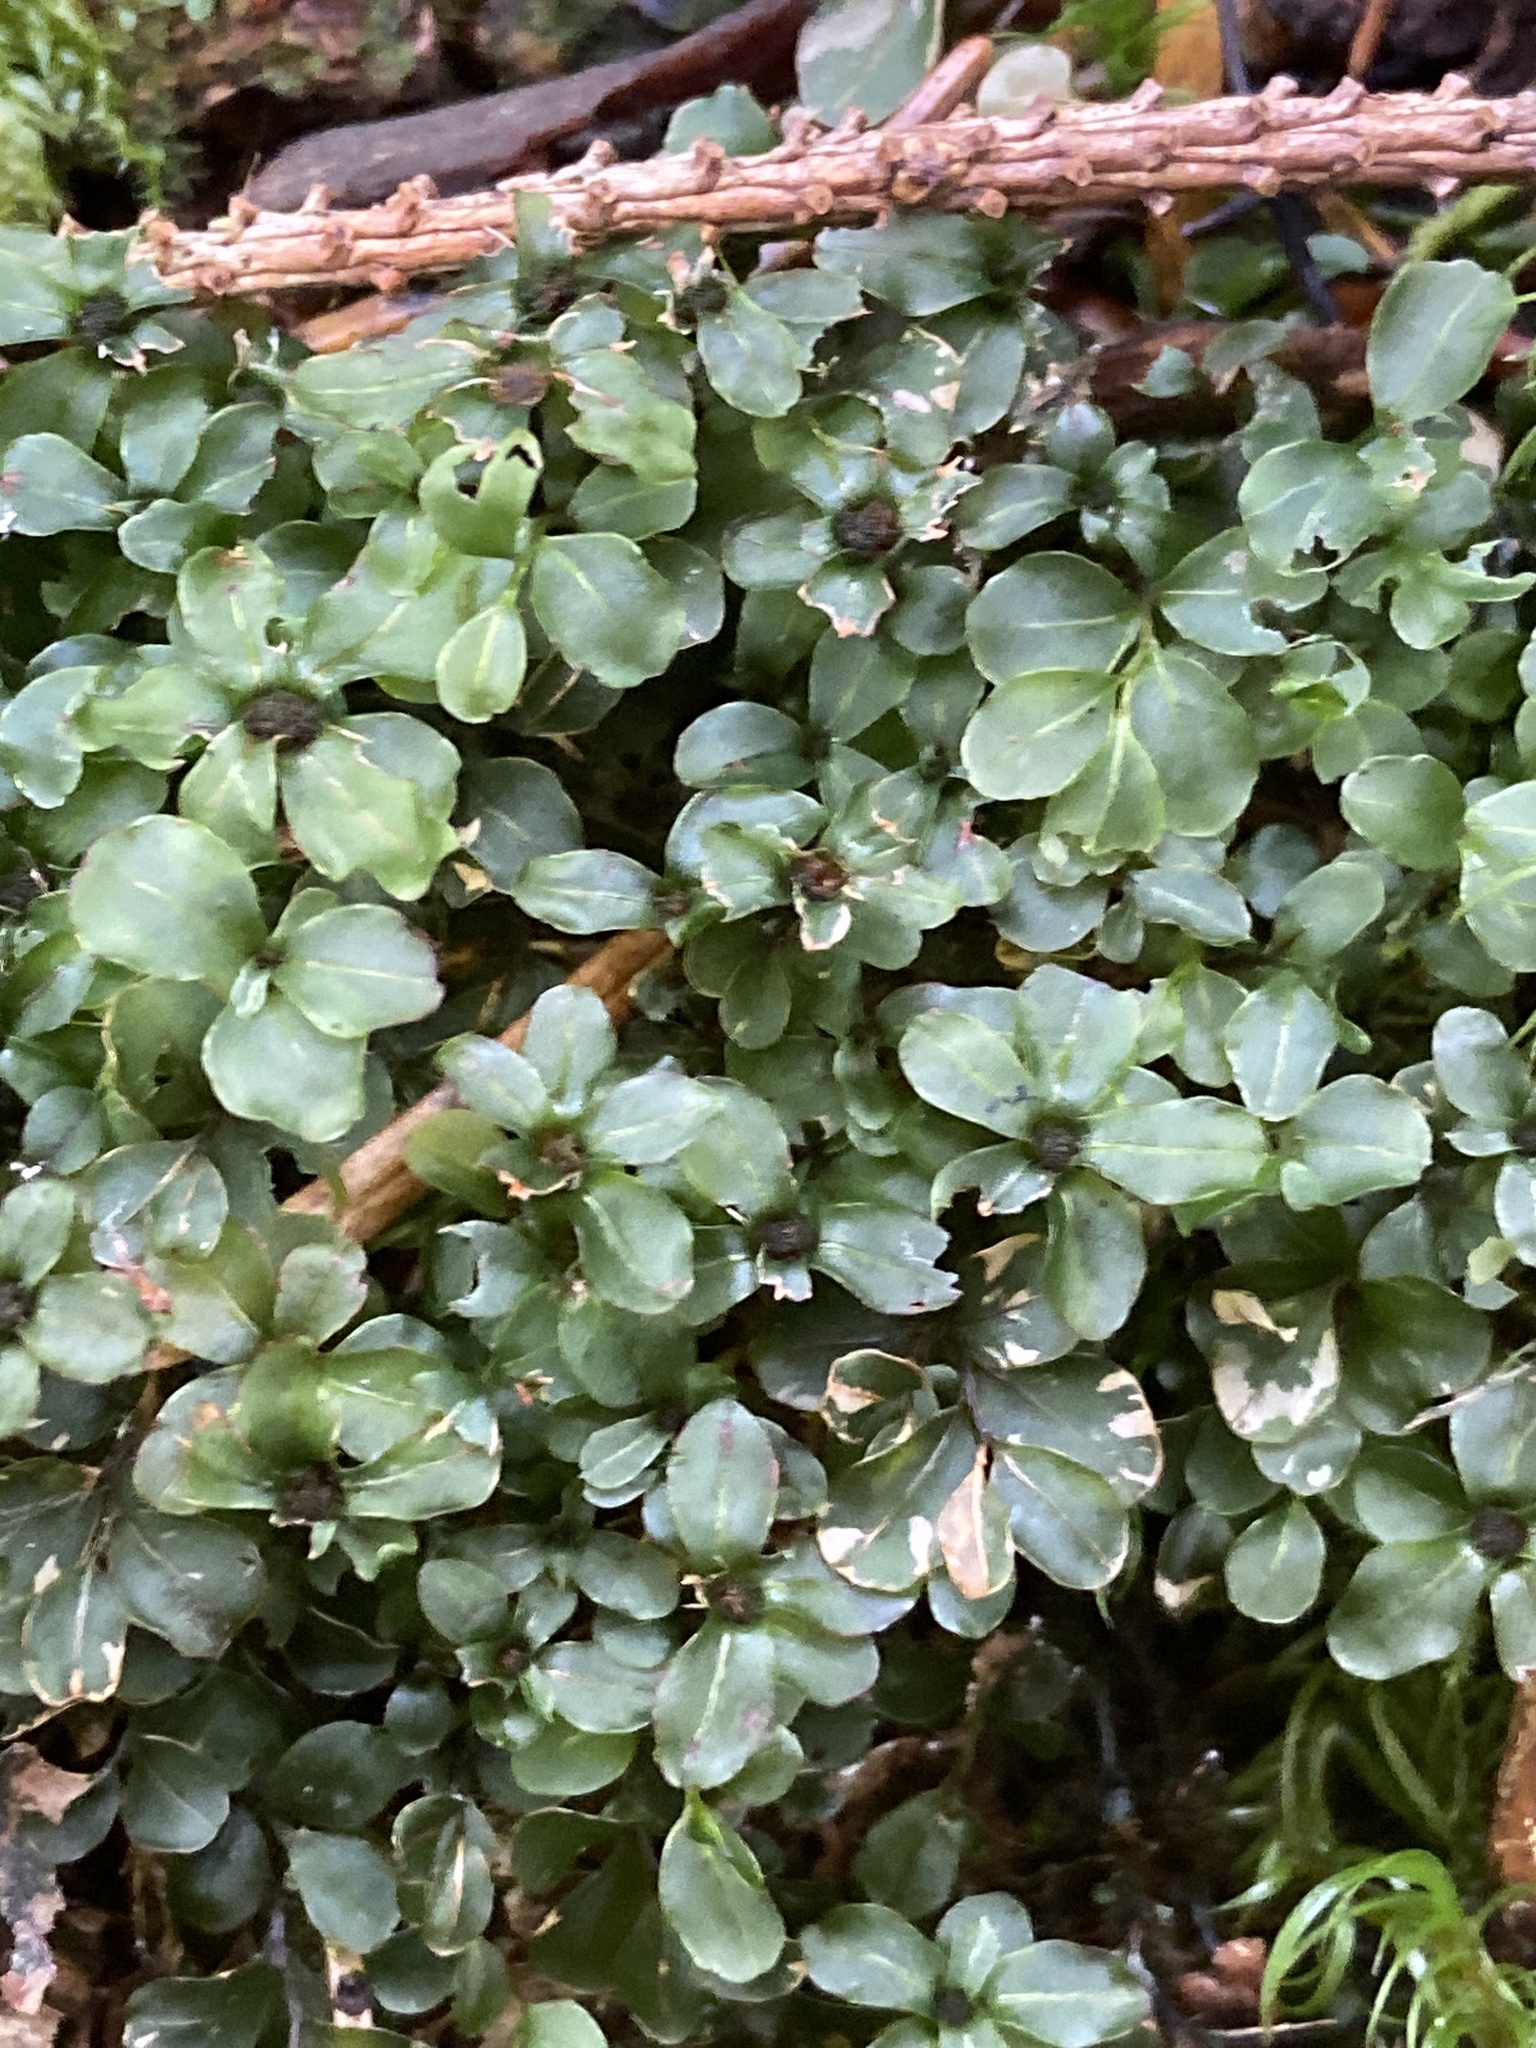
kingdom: Plantae
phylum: Bryophyta
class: Bryopsida
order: Bryales
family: Mniaceae
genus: Rhizomnium
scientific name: Rhizomnium punctatum
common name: Dotted leafy moss
